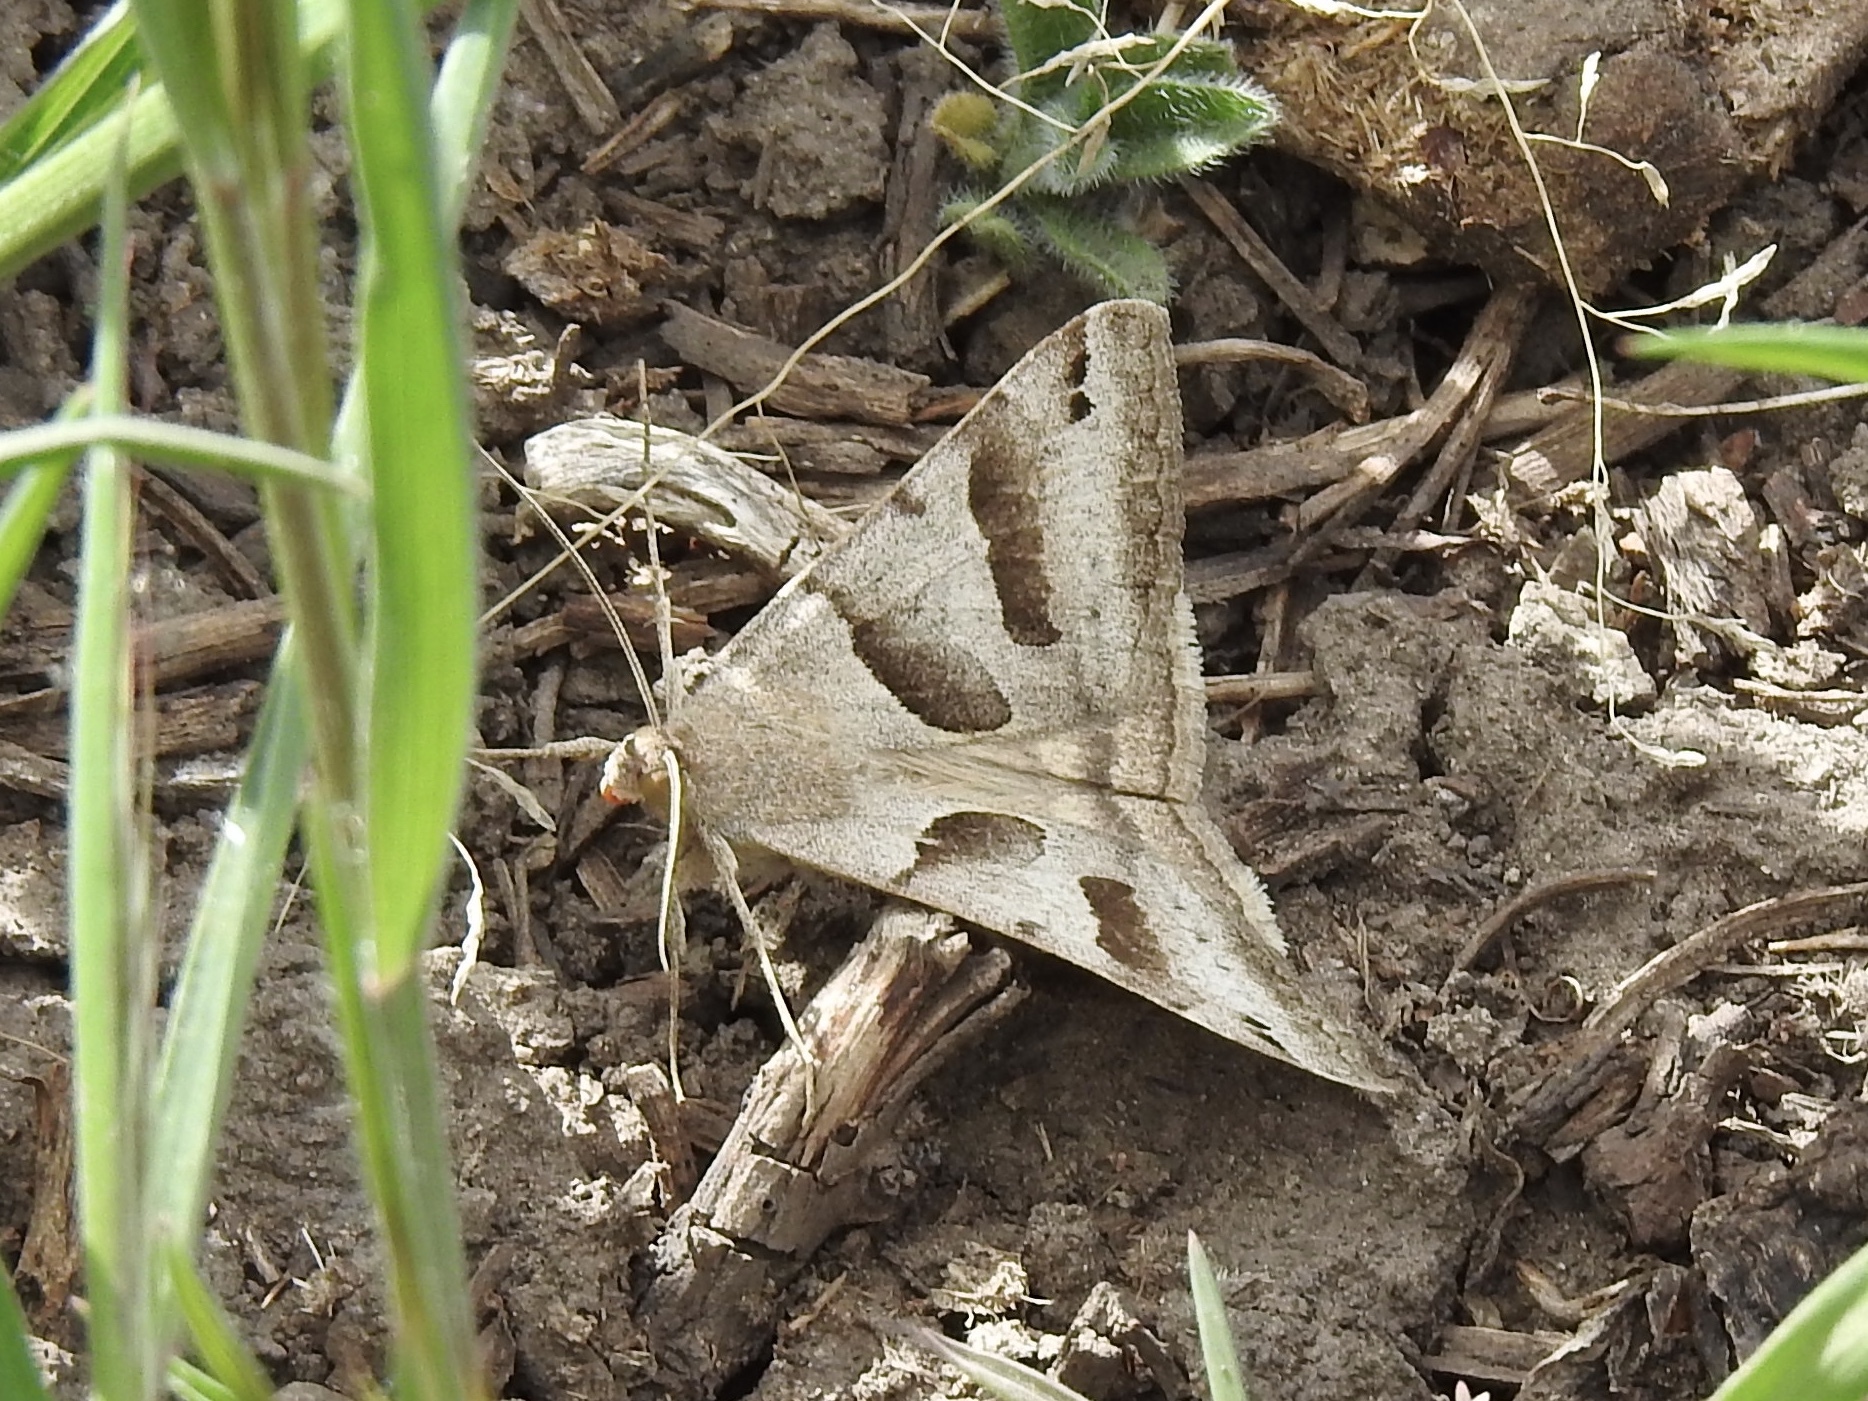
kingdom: Animalia
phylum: Arthropoda
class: Insecta
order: Lepidoptera
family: Erebidae
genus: Caenurgina
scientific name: Caenurgina erechtea
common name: Forage looper moth
